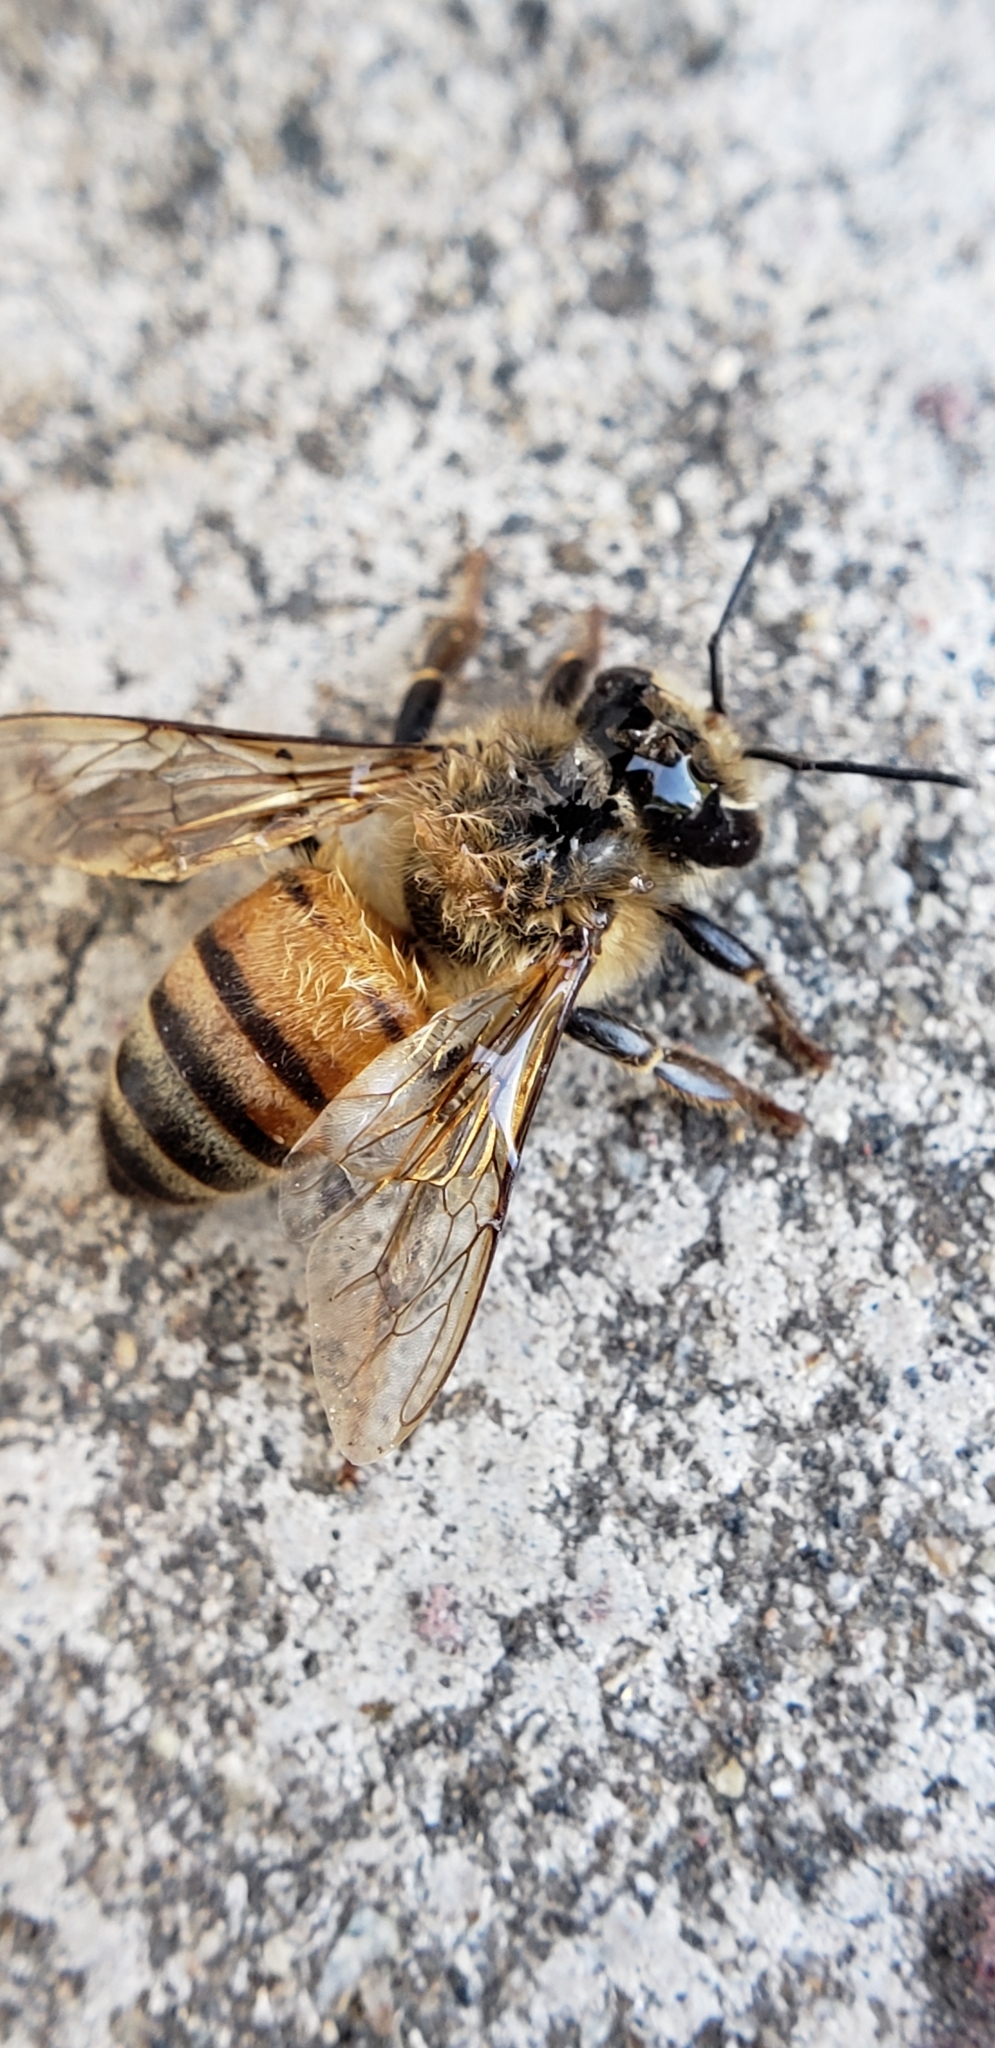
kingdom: Animalia
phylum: Arthropoda
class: Insecta
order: Hymenoptera
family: Apidae
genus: Apis
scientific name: Apis mellifera
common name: Honey bee
